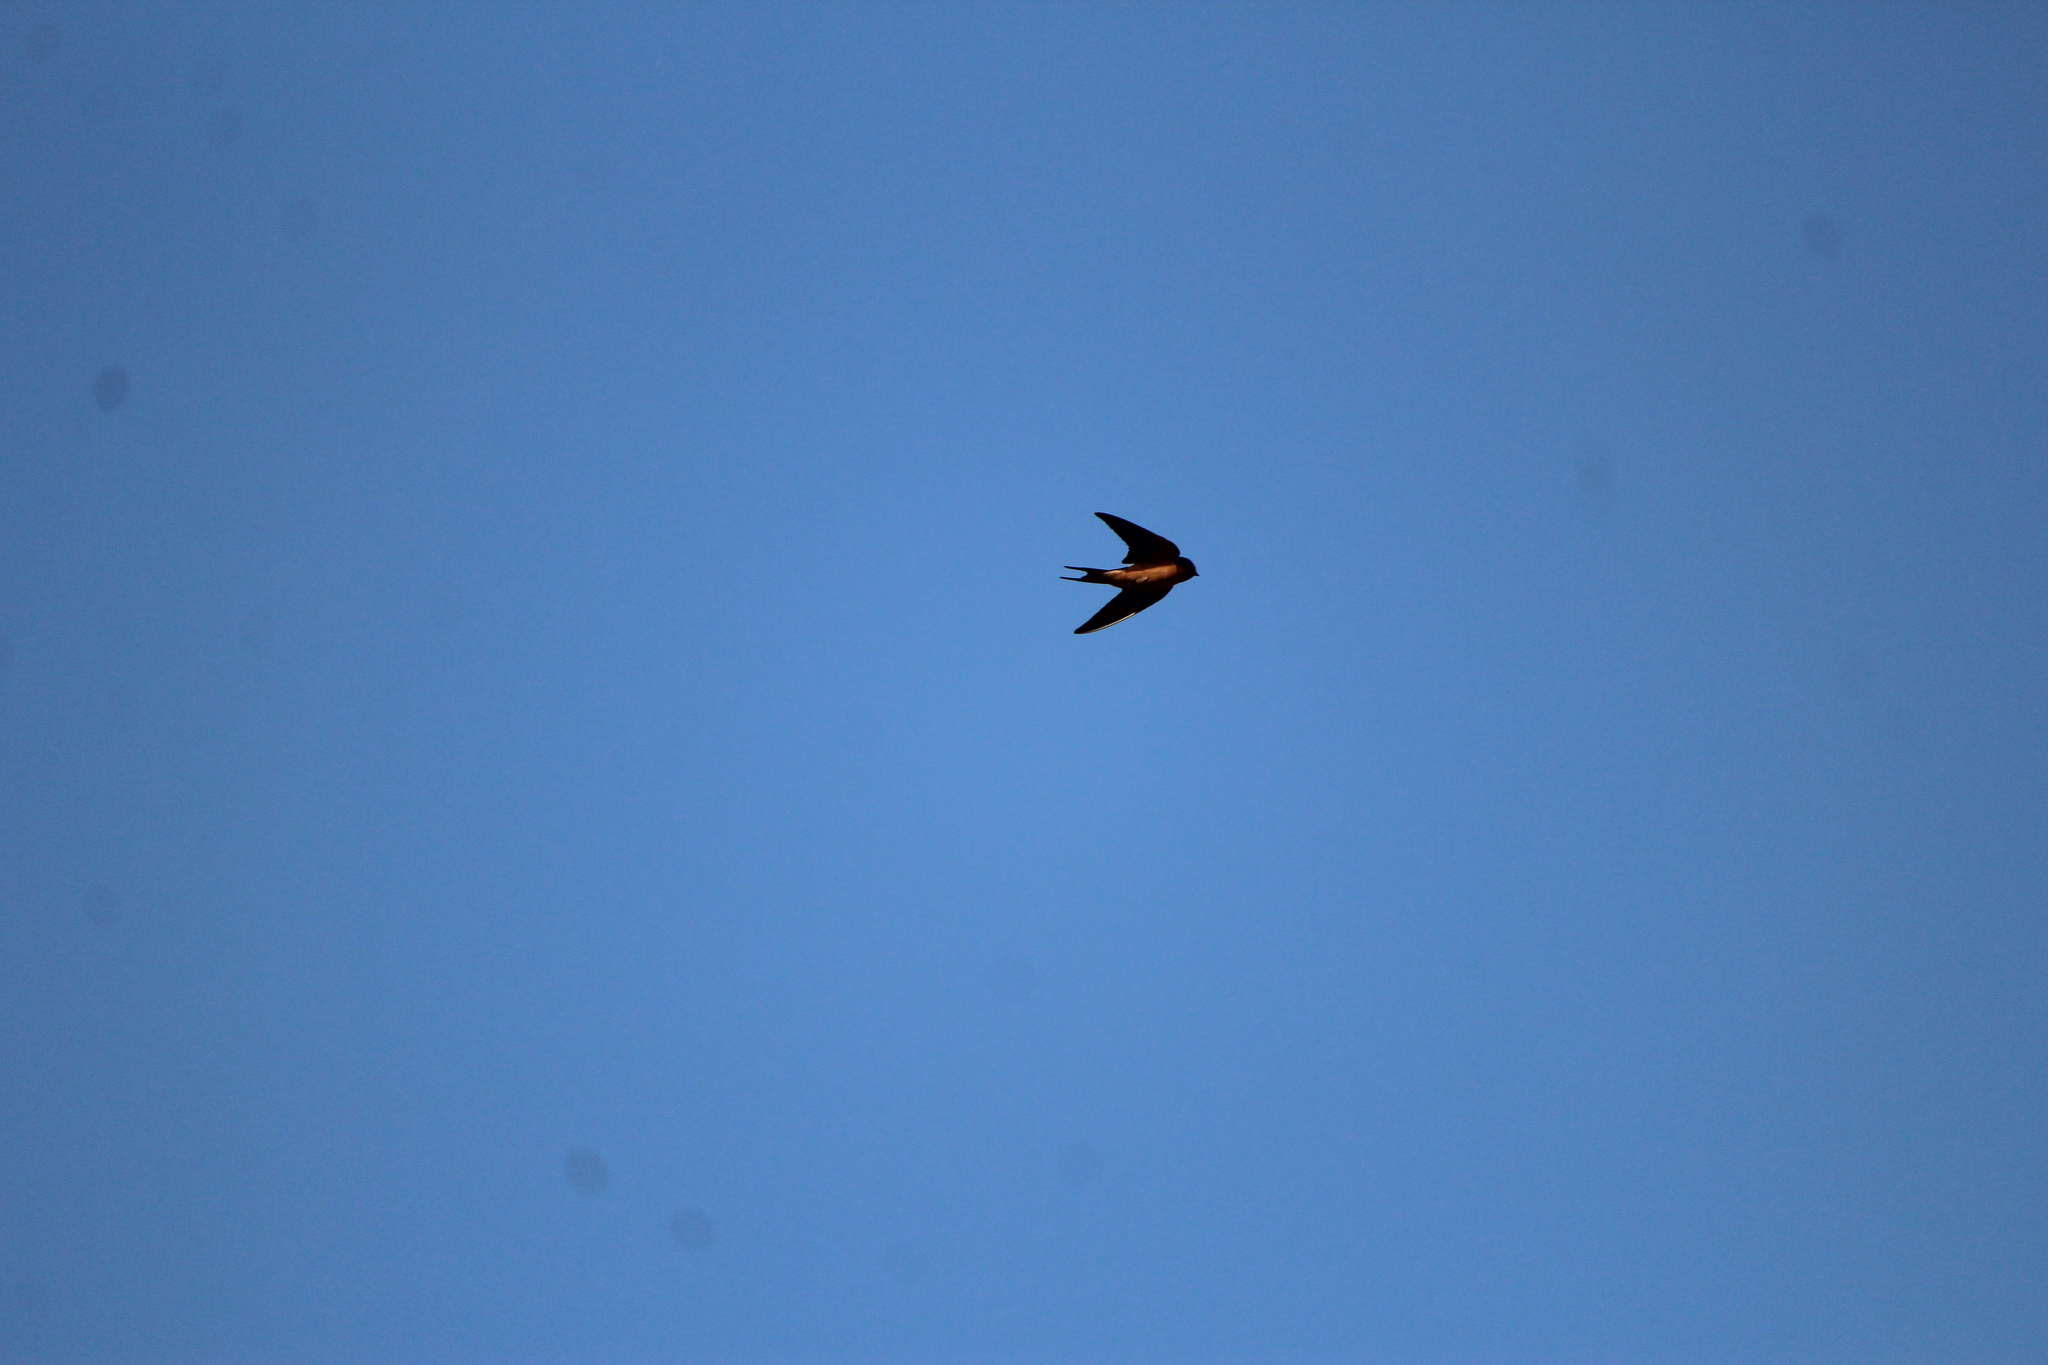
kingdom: Animalia
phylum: Chordata
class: Aves
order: Passeriformes
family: Hirundinidae
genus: Hirundo
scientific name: Hirundo rustica
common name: Barn swallow
